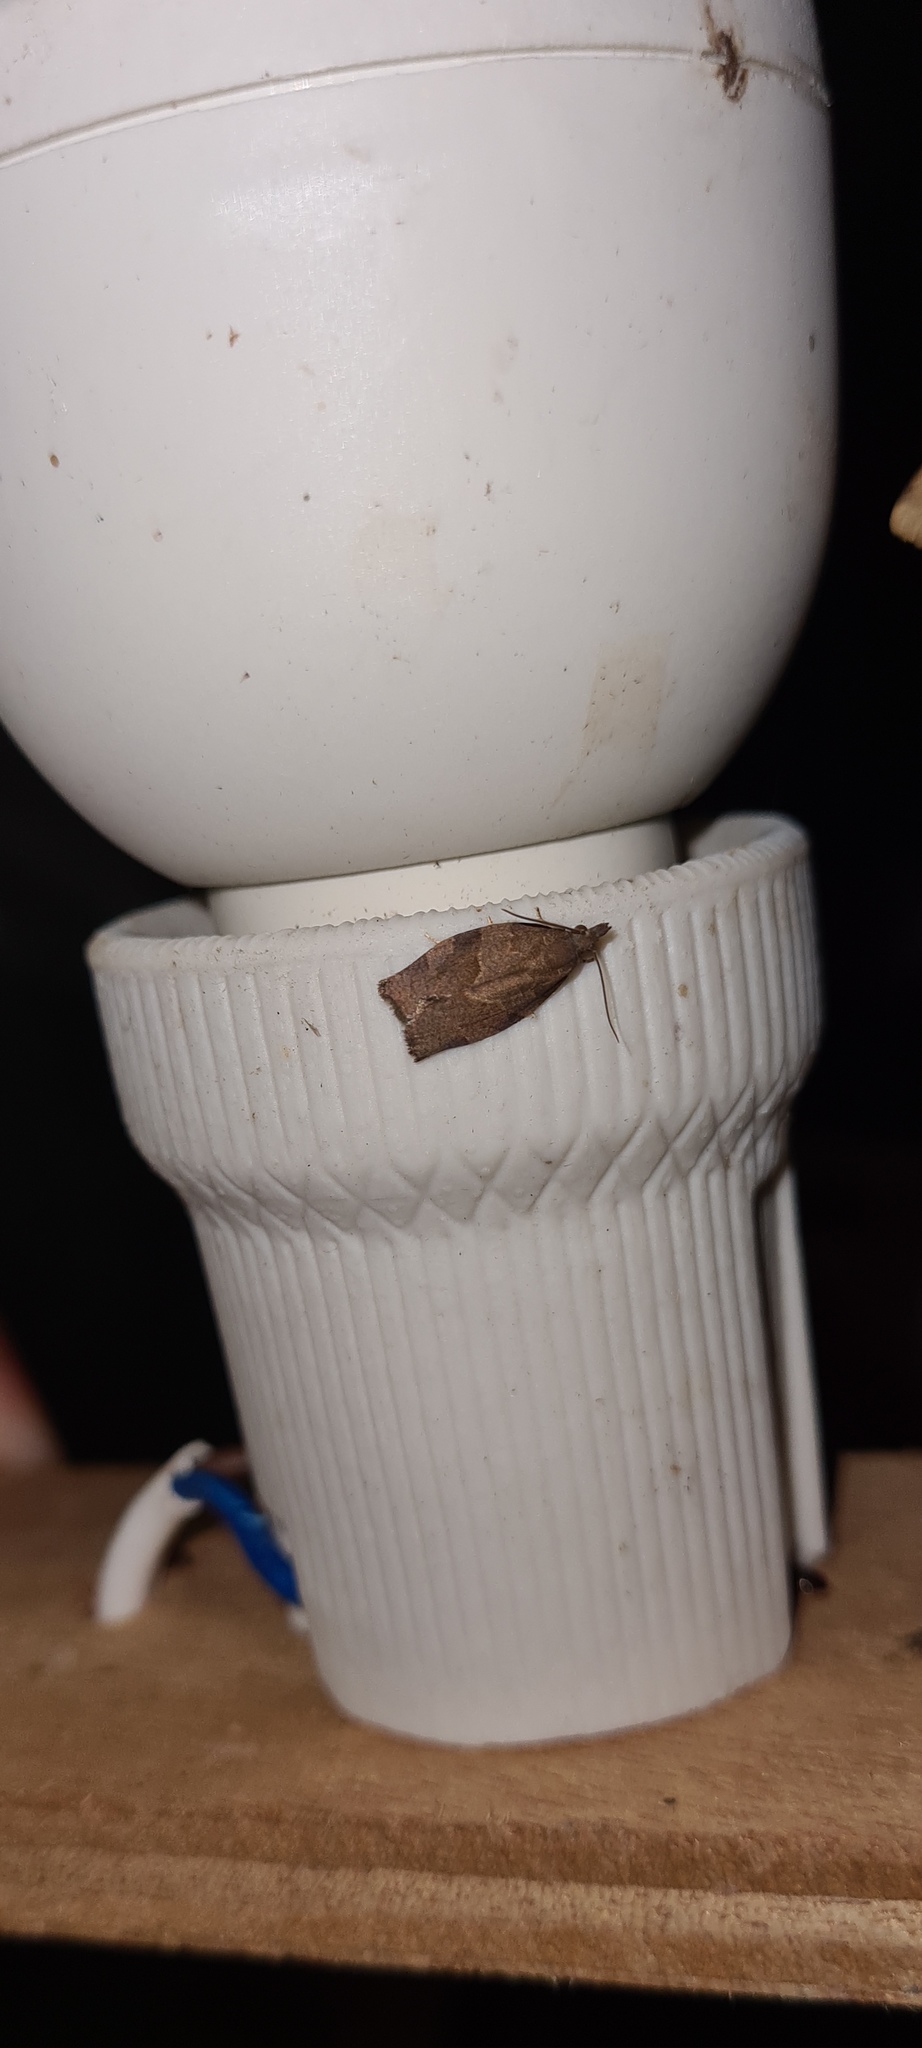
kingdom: Animalia
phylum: Arthropoda
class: Insecta
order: Lepidoptera
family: Tortricidae
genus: Pandemis
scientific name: Pandemis heparana
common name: Dark fruit-tree tortrix
